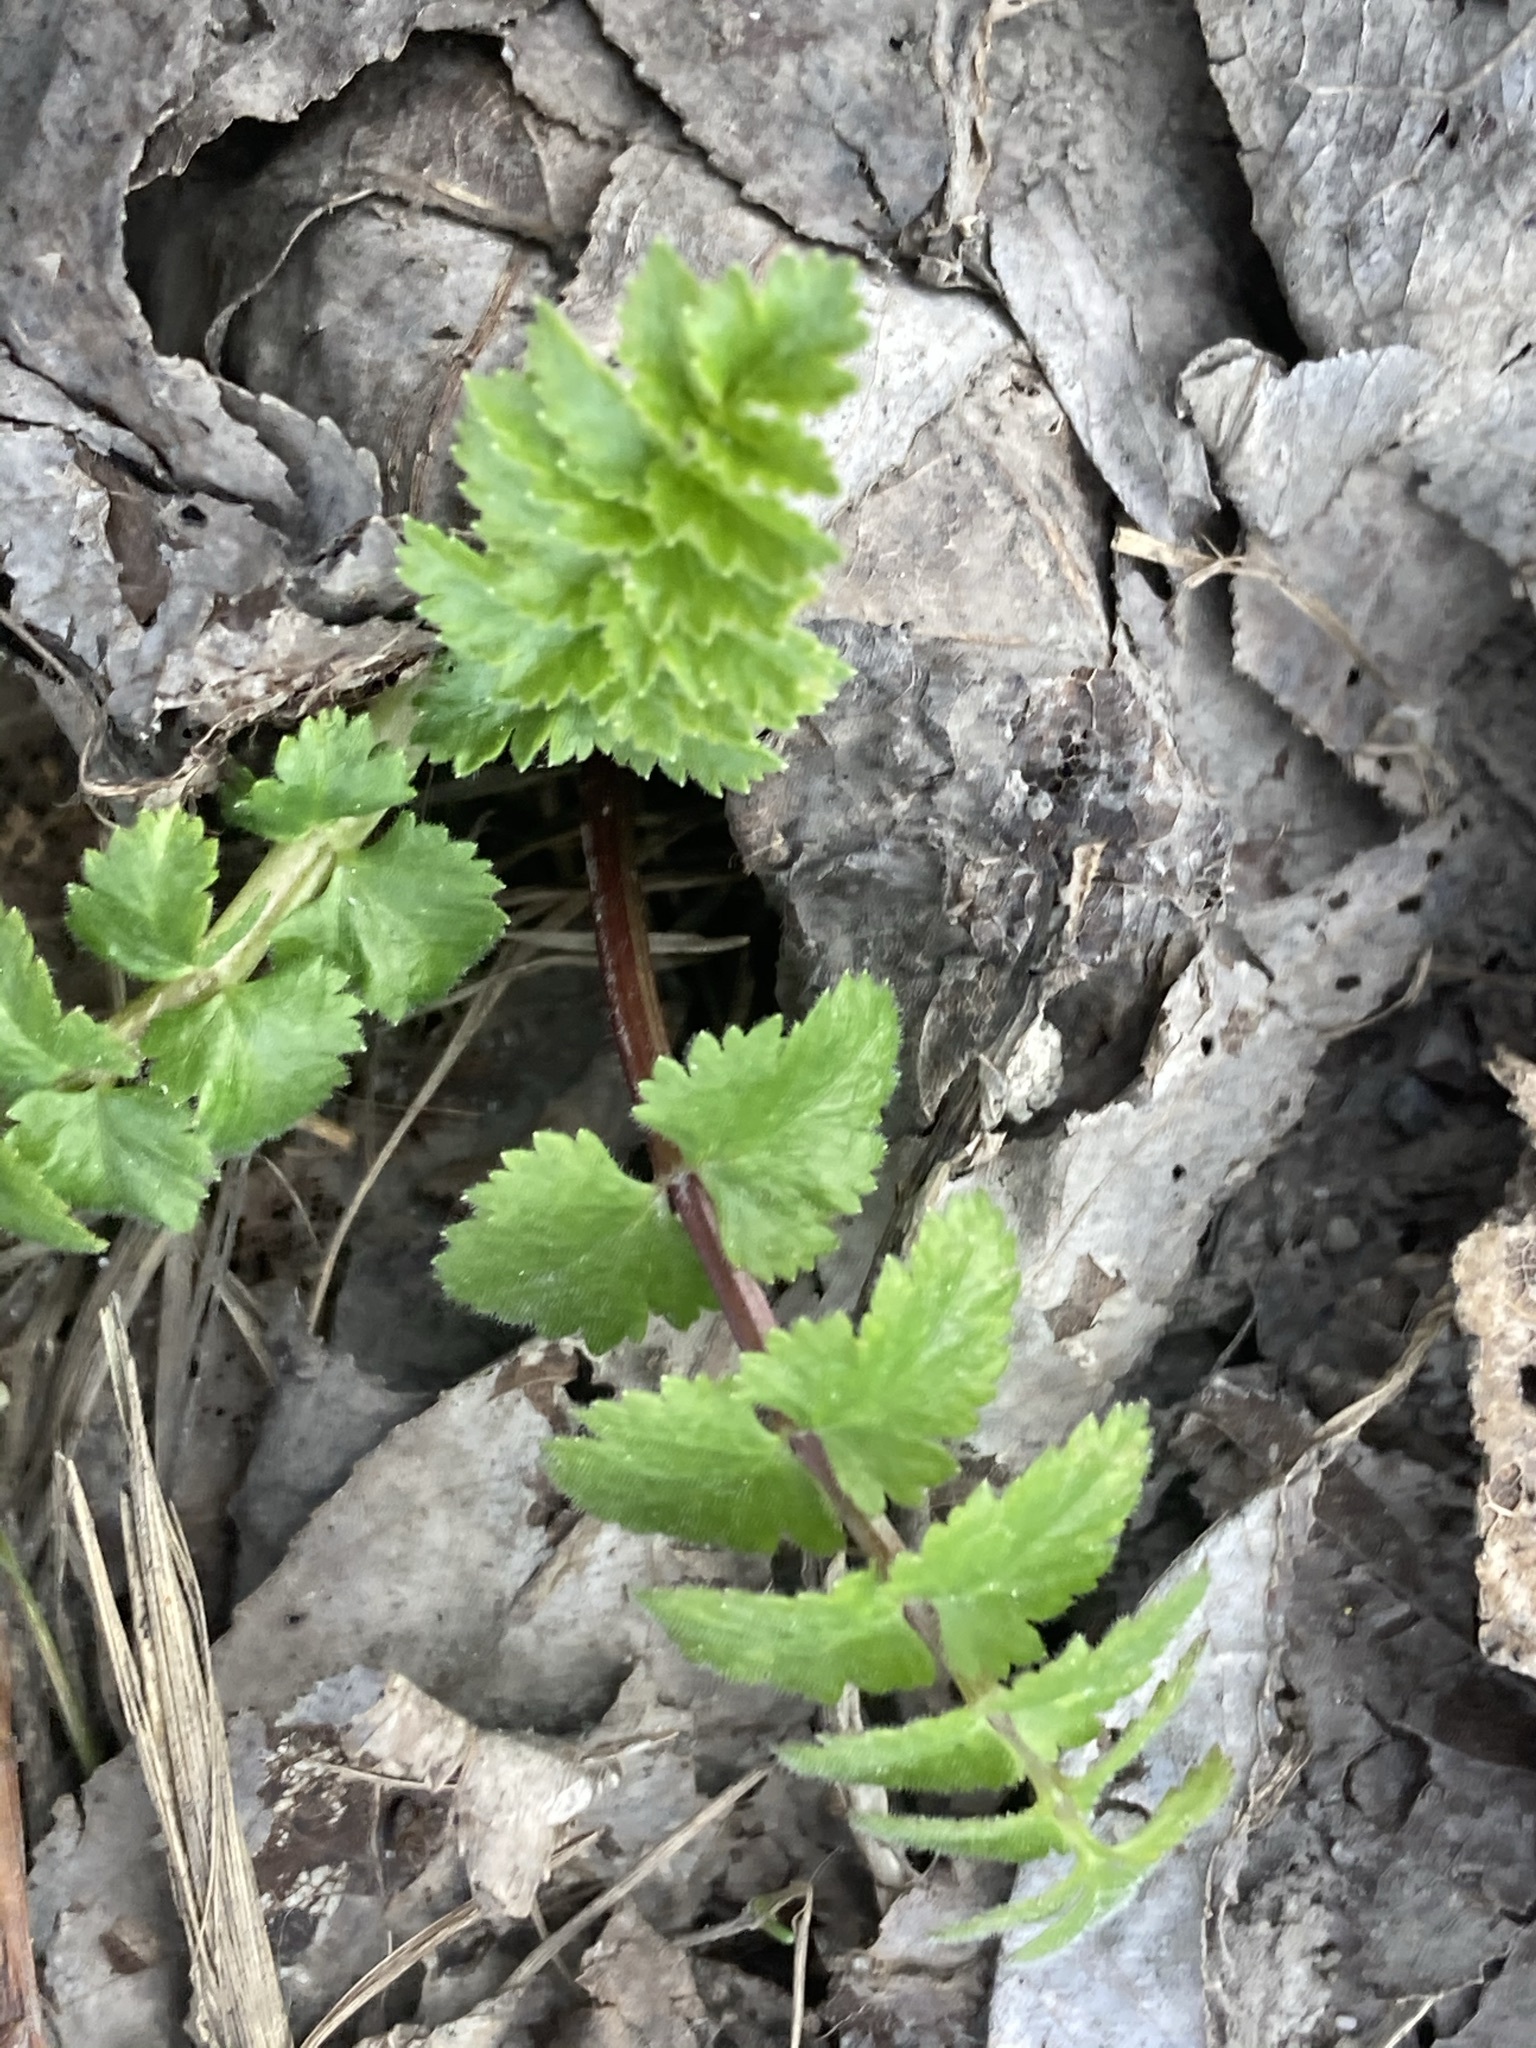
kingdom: Plantae
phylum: Tracheophyta
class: Magnoliopsida
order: Apiales
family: Apiaceae
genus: Pastinaca
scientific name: Pastinaca sativa
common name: Wild parsnip
